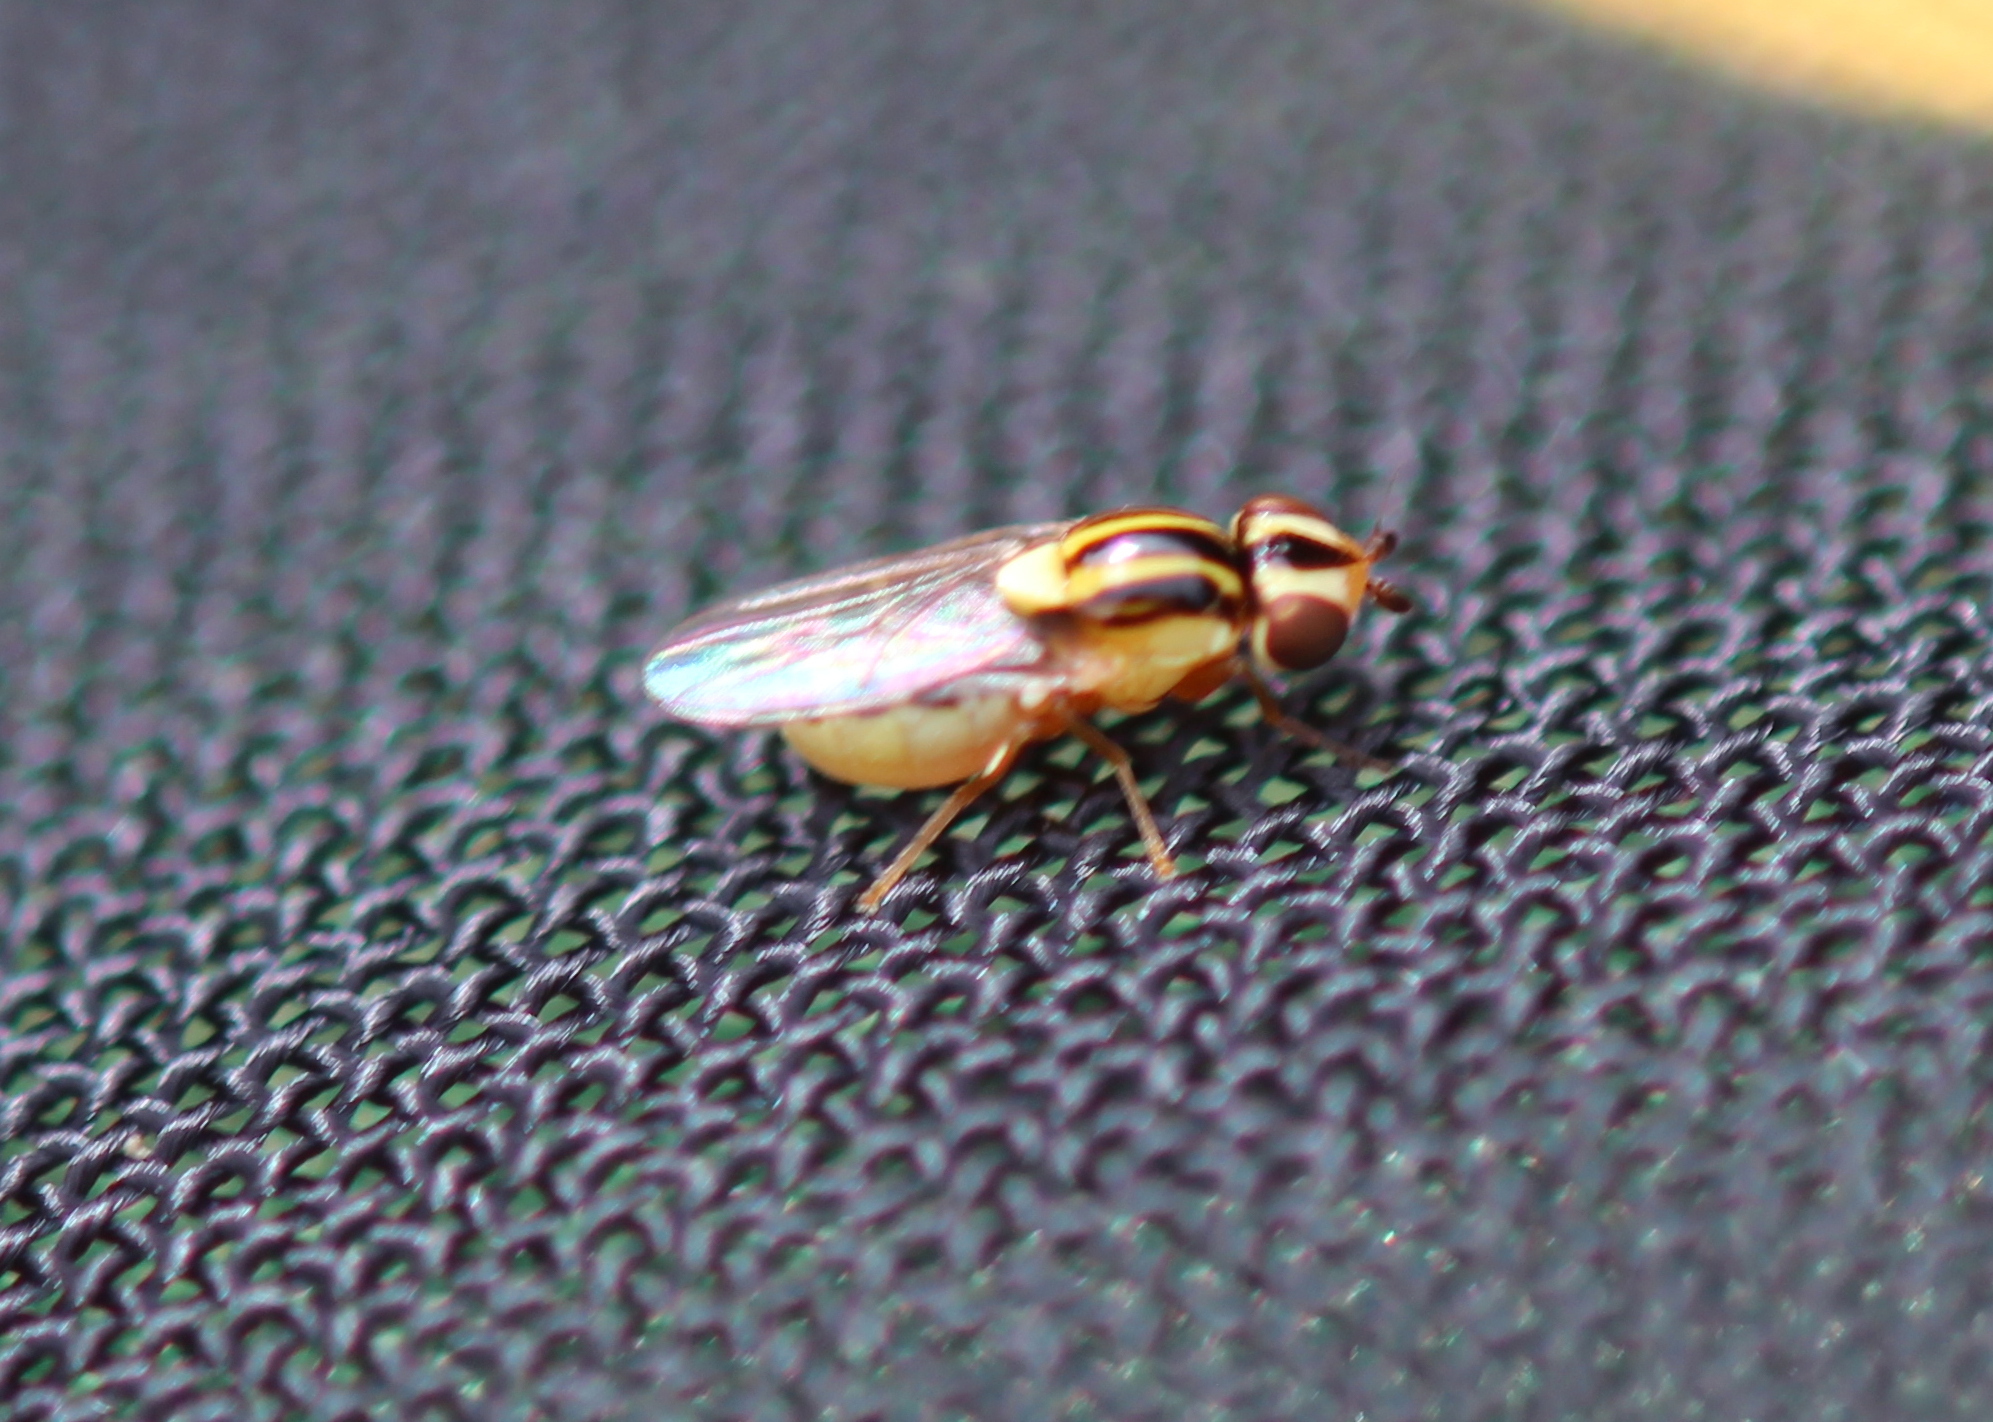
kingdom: Animalia
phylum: Arthropoda
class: Insecta
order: Diptera
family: Chloropidae
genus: Thaumatomyia
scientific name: Thaumatomyia glabra
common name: Chloropid fly
